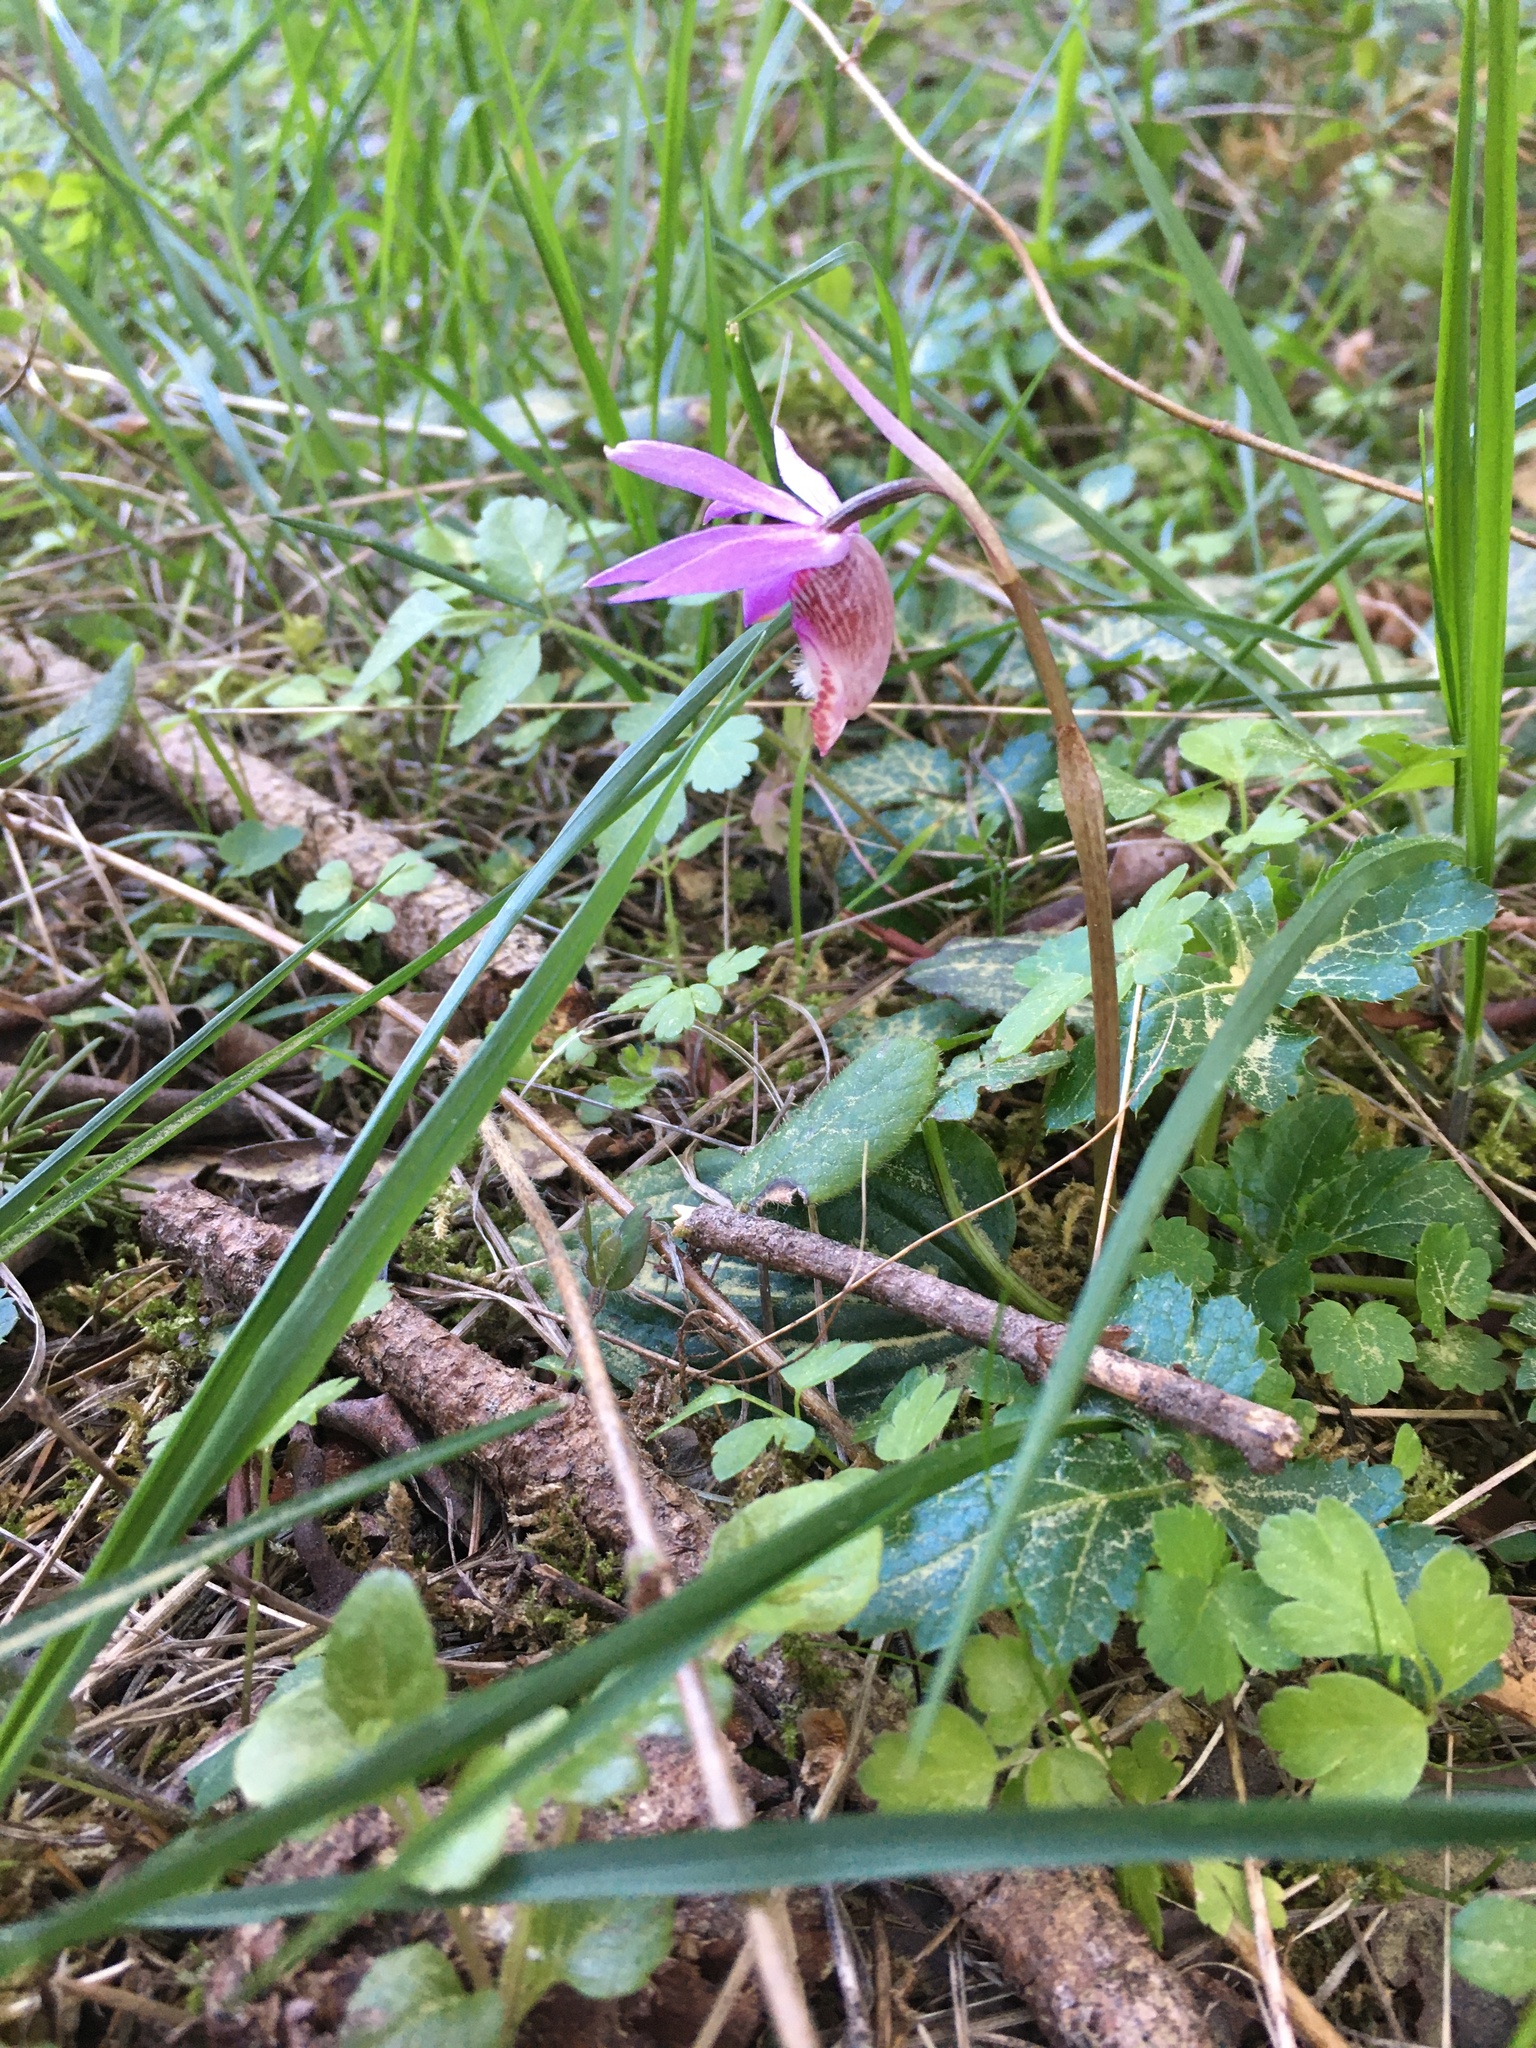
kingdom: Plantae
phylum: Tracheophyta
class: Liliopsida
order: Asparagales
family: Orchidaceae
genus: Calypso
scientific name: Calypso bulbosa
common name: Calypso
